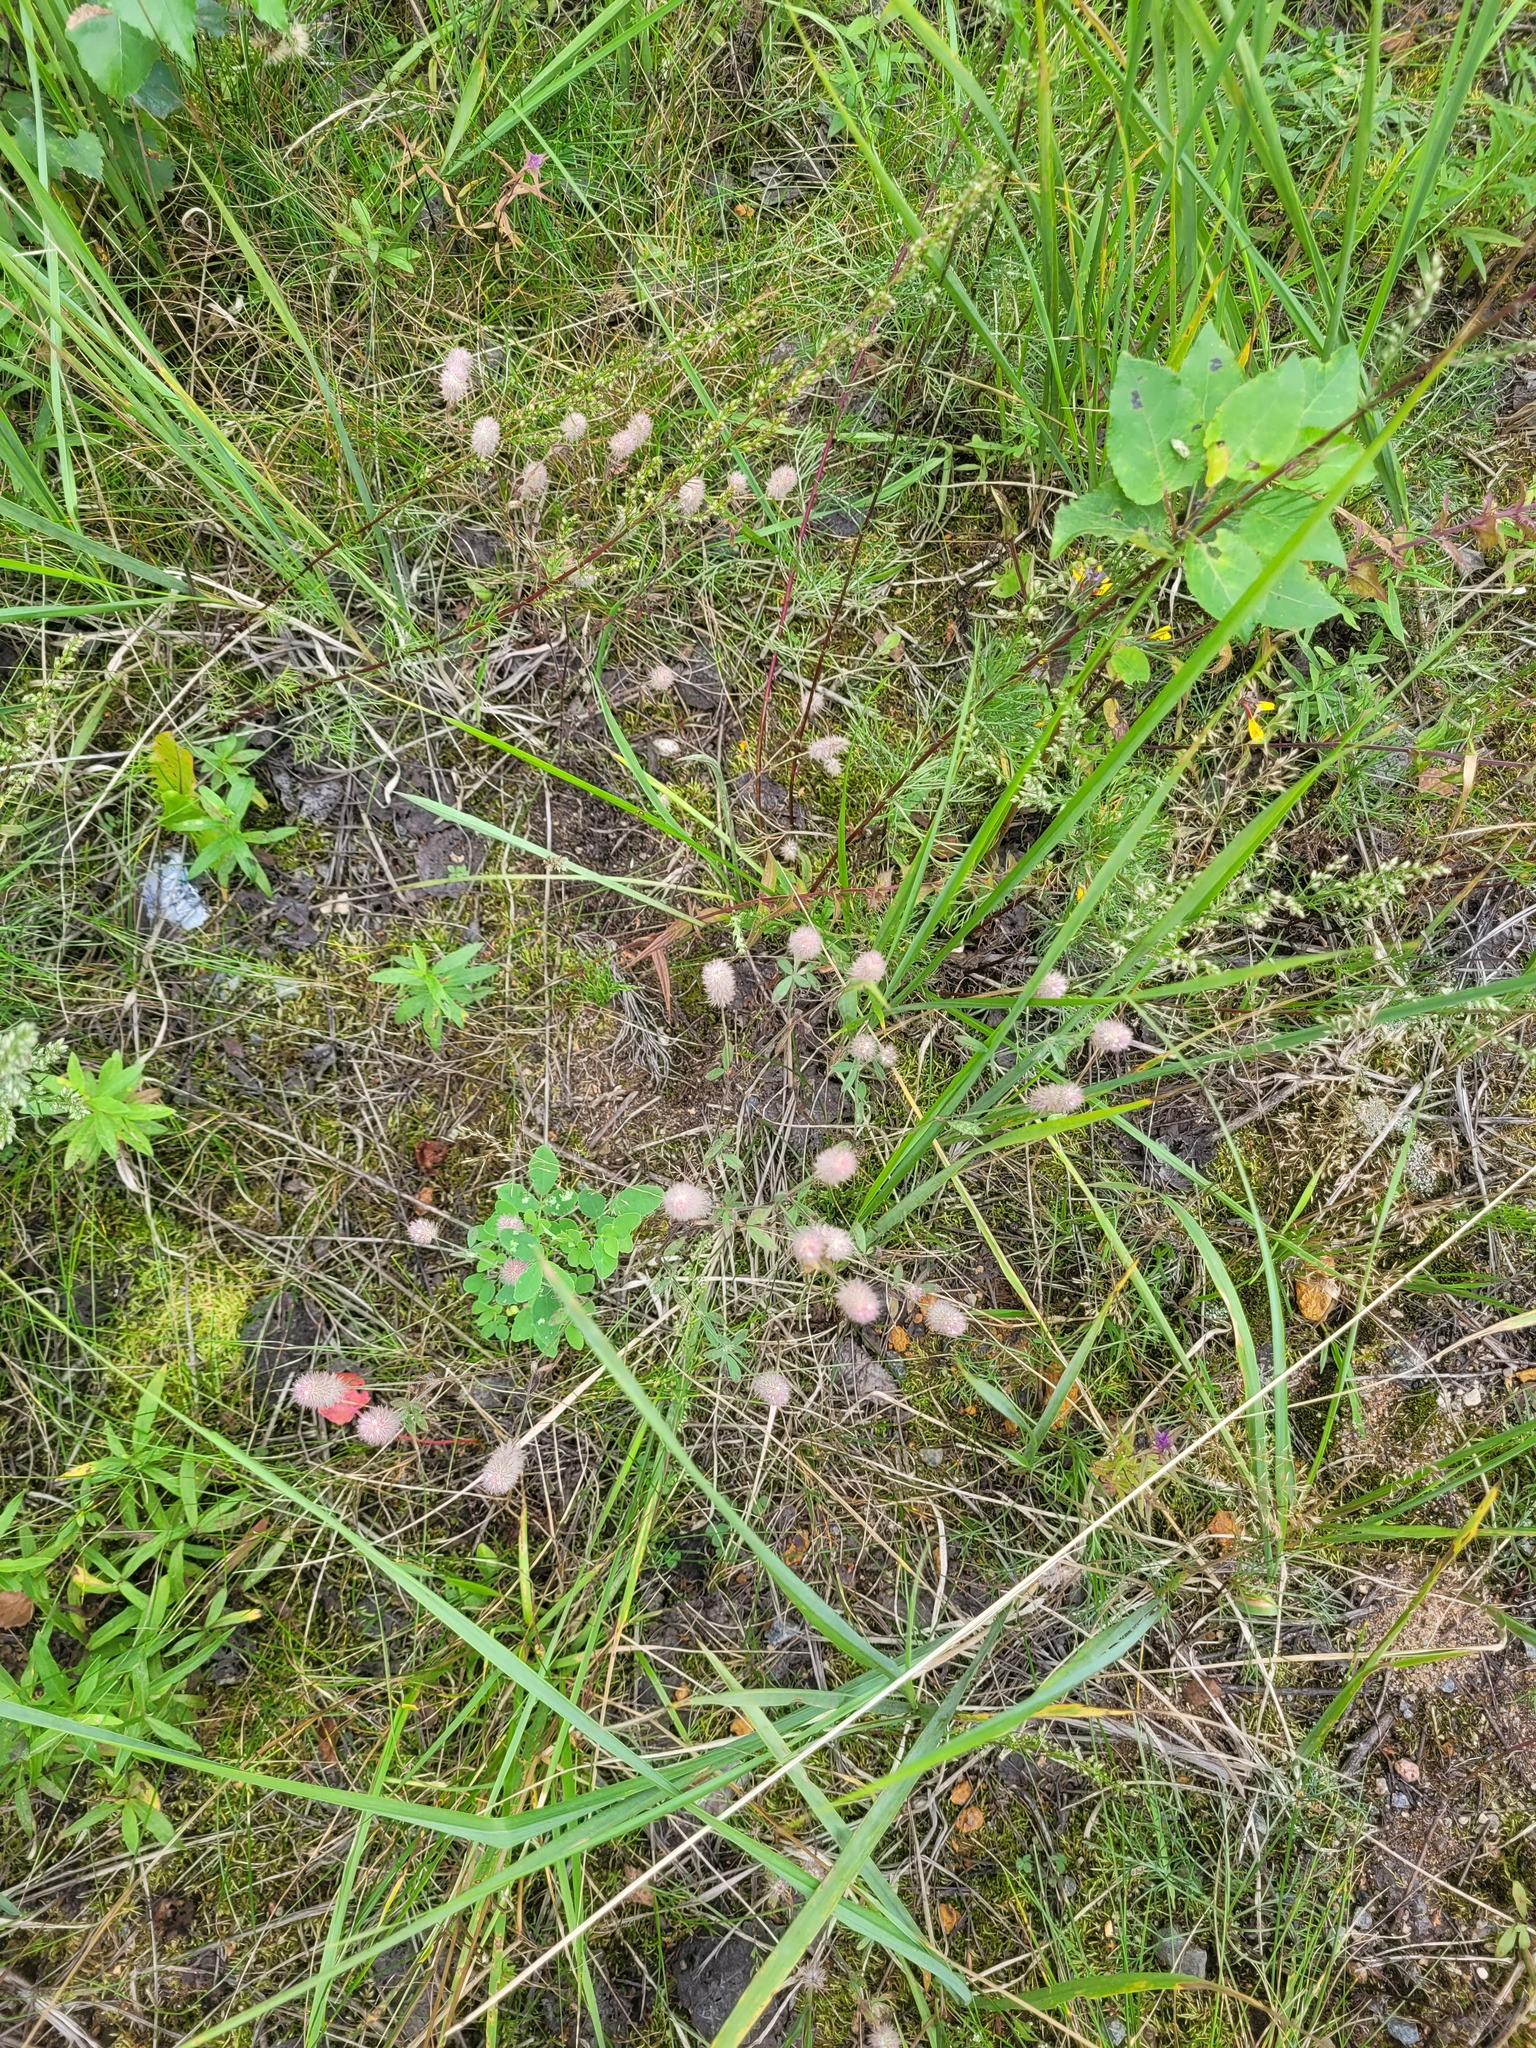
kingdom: Plantae
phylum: Tracheophyta
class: Magnoliopsida
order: Fabales
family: Fabaceae
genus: Trifolium
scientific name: Trifolium arvense
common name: Hare's-foot clover
